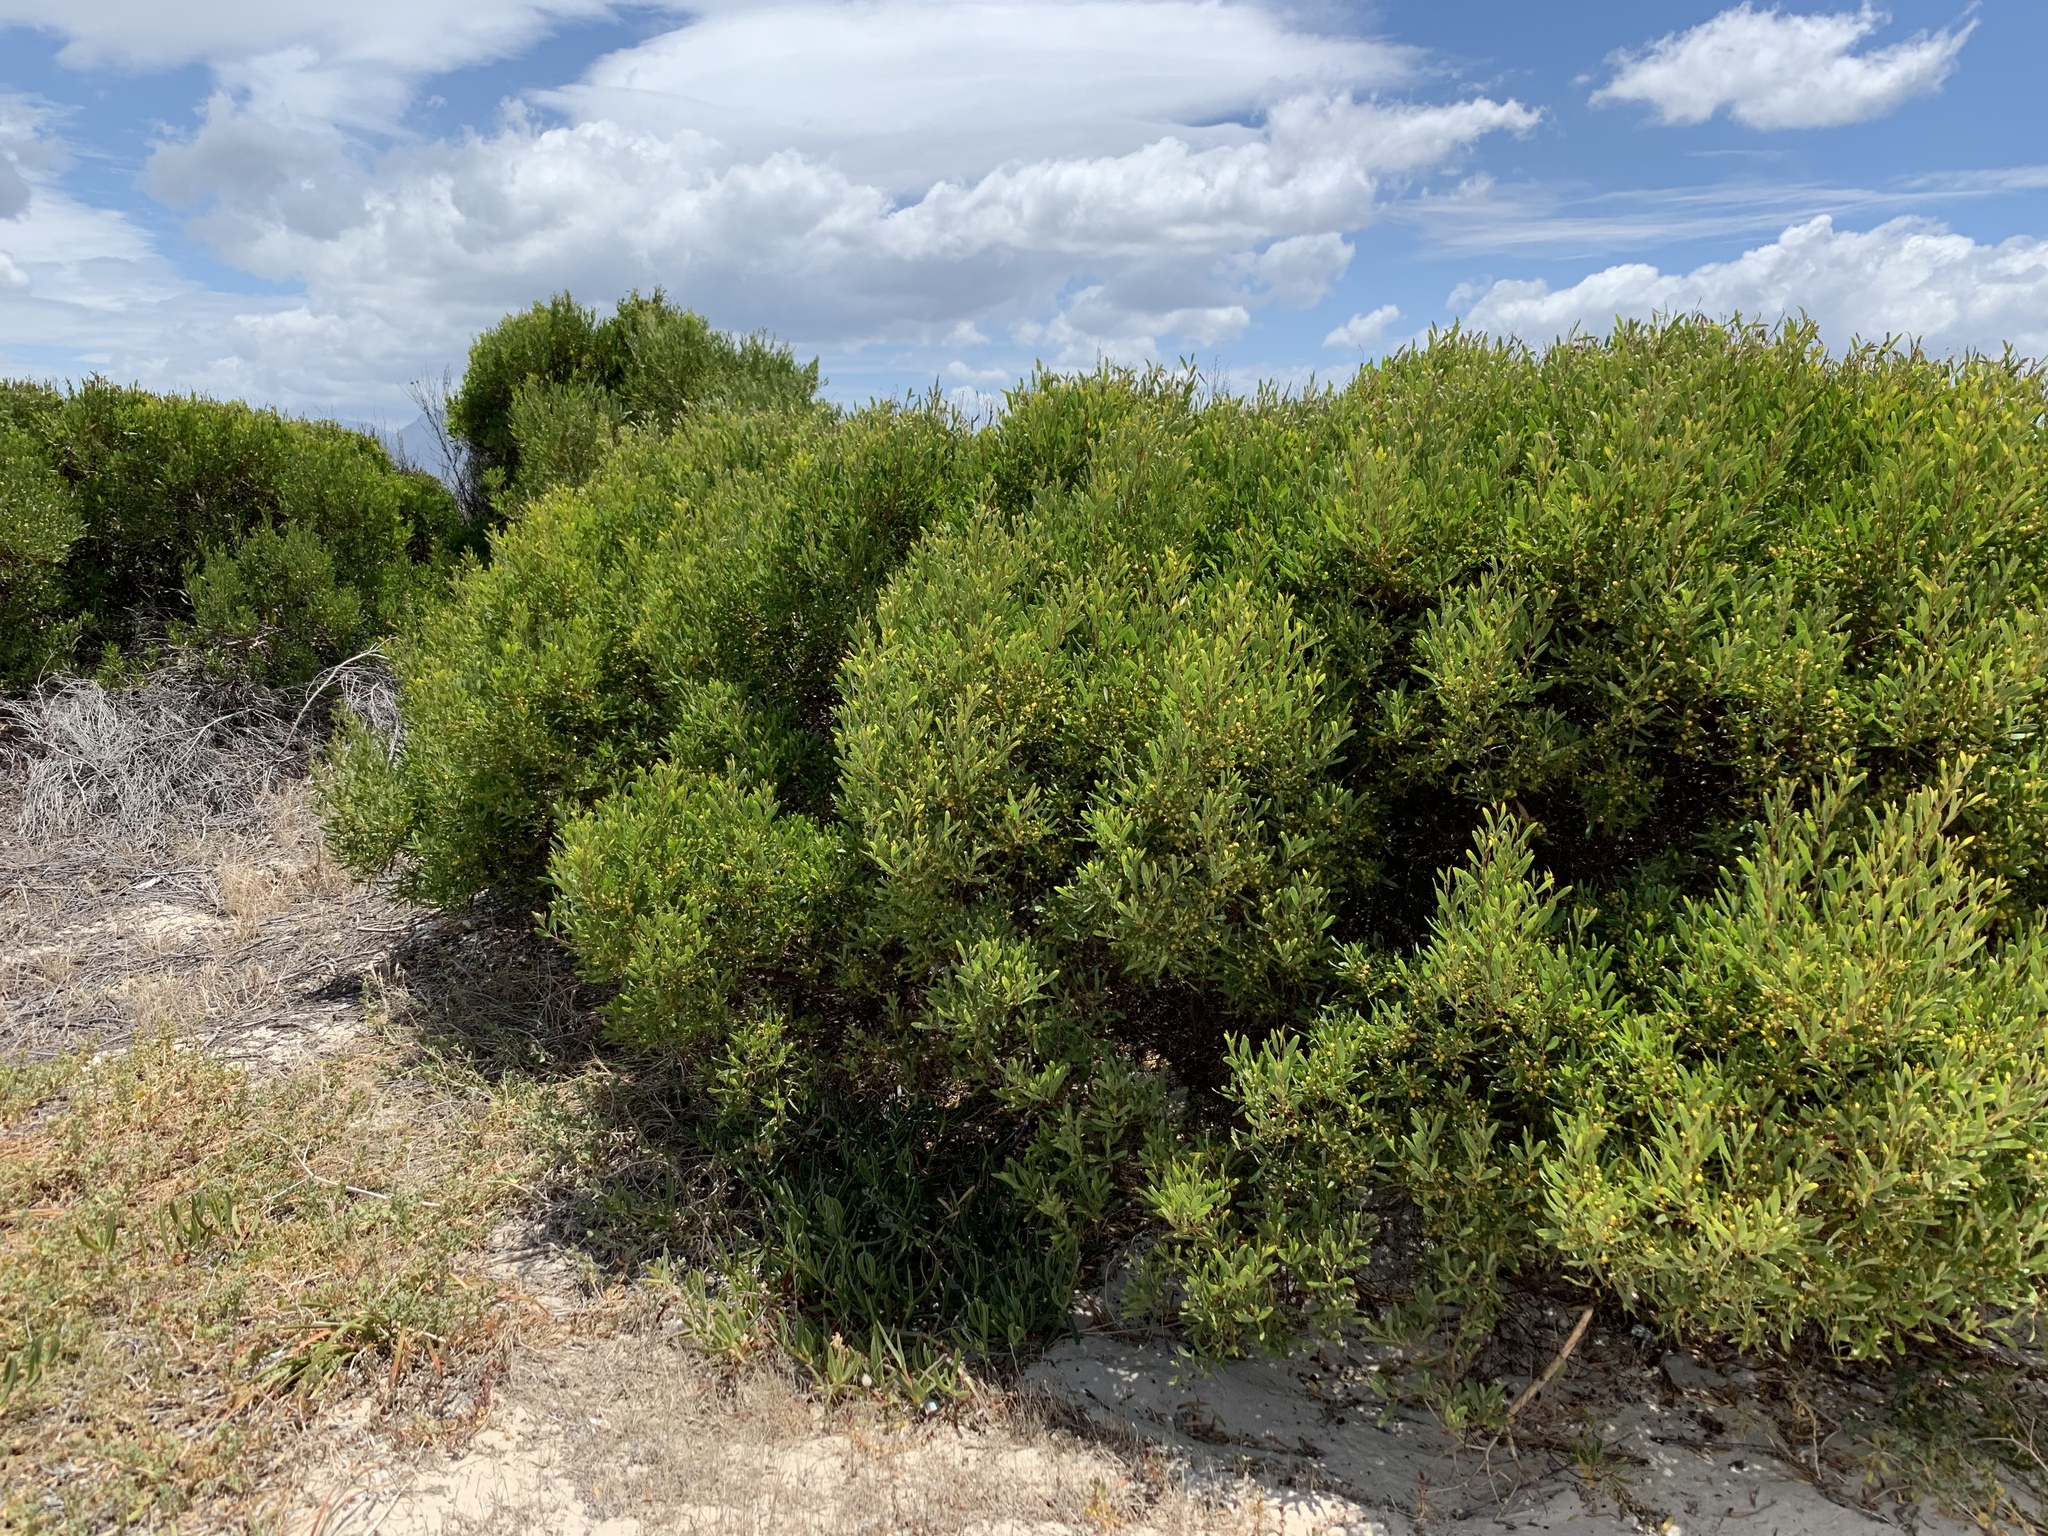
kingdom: Plantae
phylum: Tracheophyta
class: Magnoliopsida
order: Fabales
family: Fabaceae
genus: Acacia
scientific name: Acacia cyclops
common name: Coastal wattle
